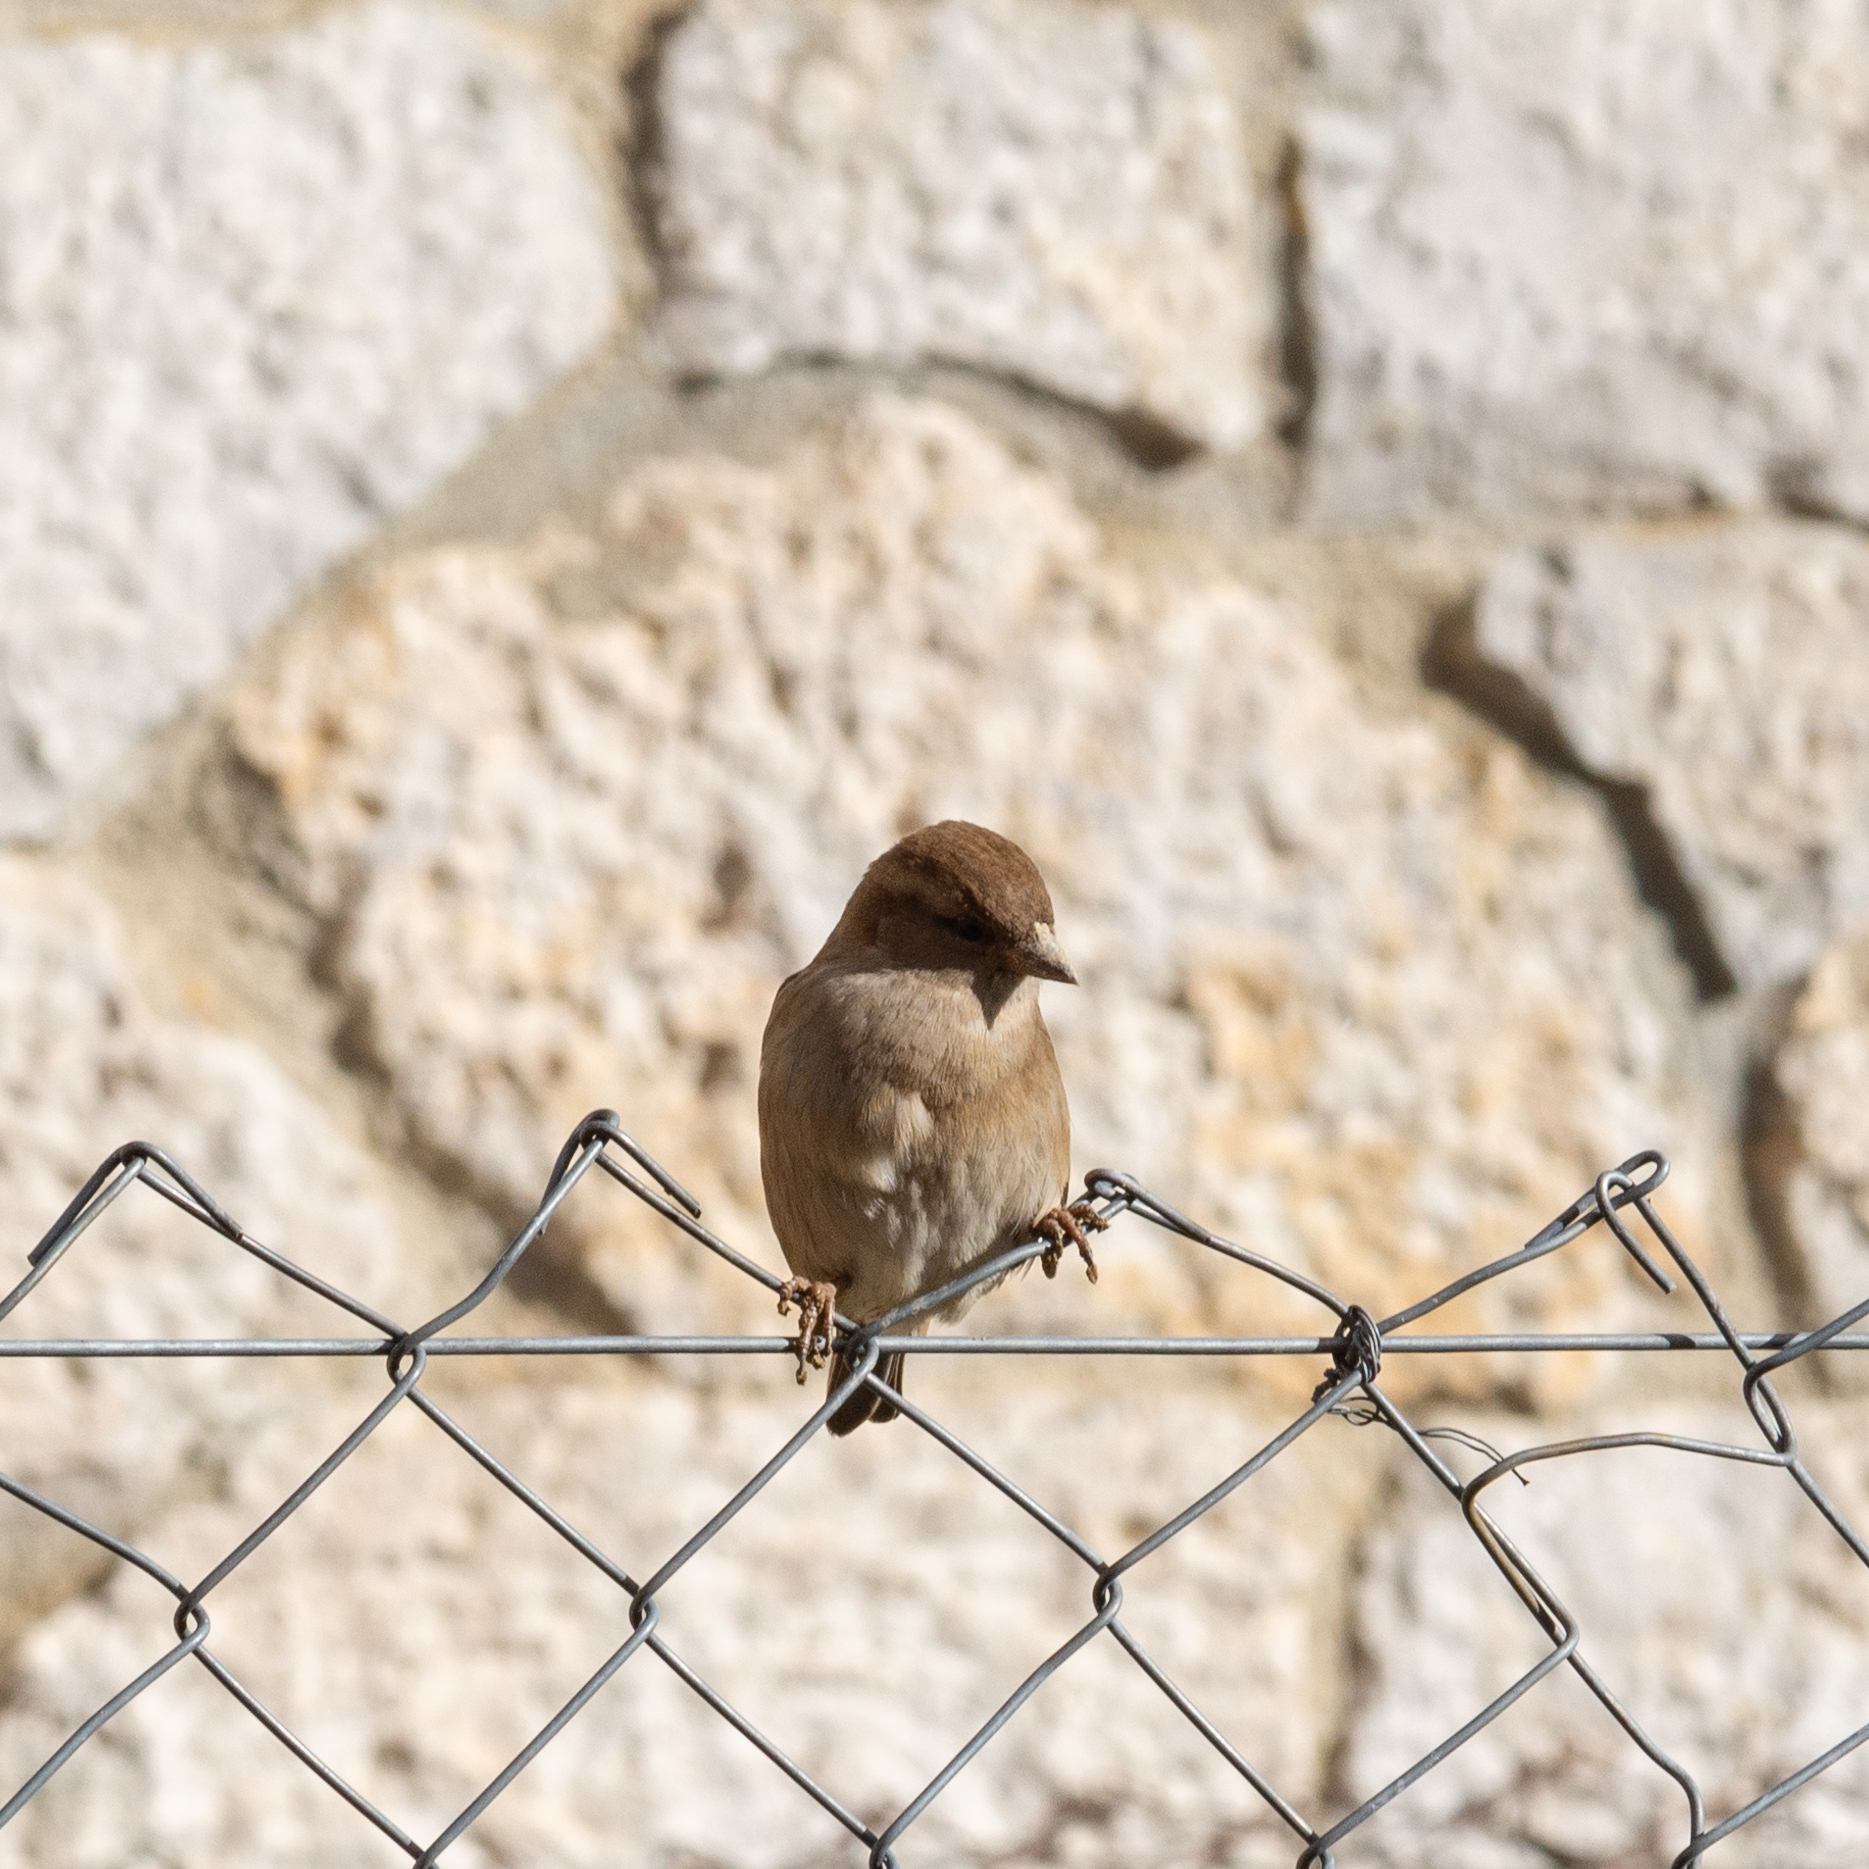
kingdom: Animalia
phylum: Chordata
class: Aves
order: Passeriformes
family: Passeridae
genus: Passer
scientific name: Passer domesticus
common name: House sparrow
